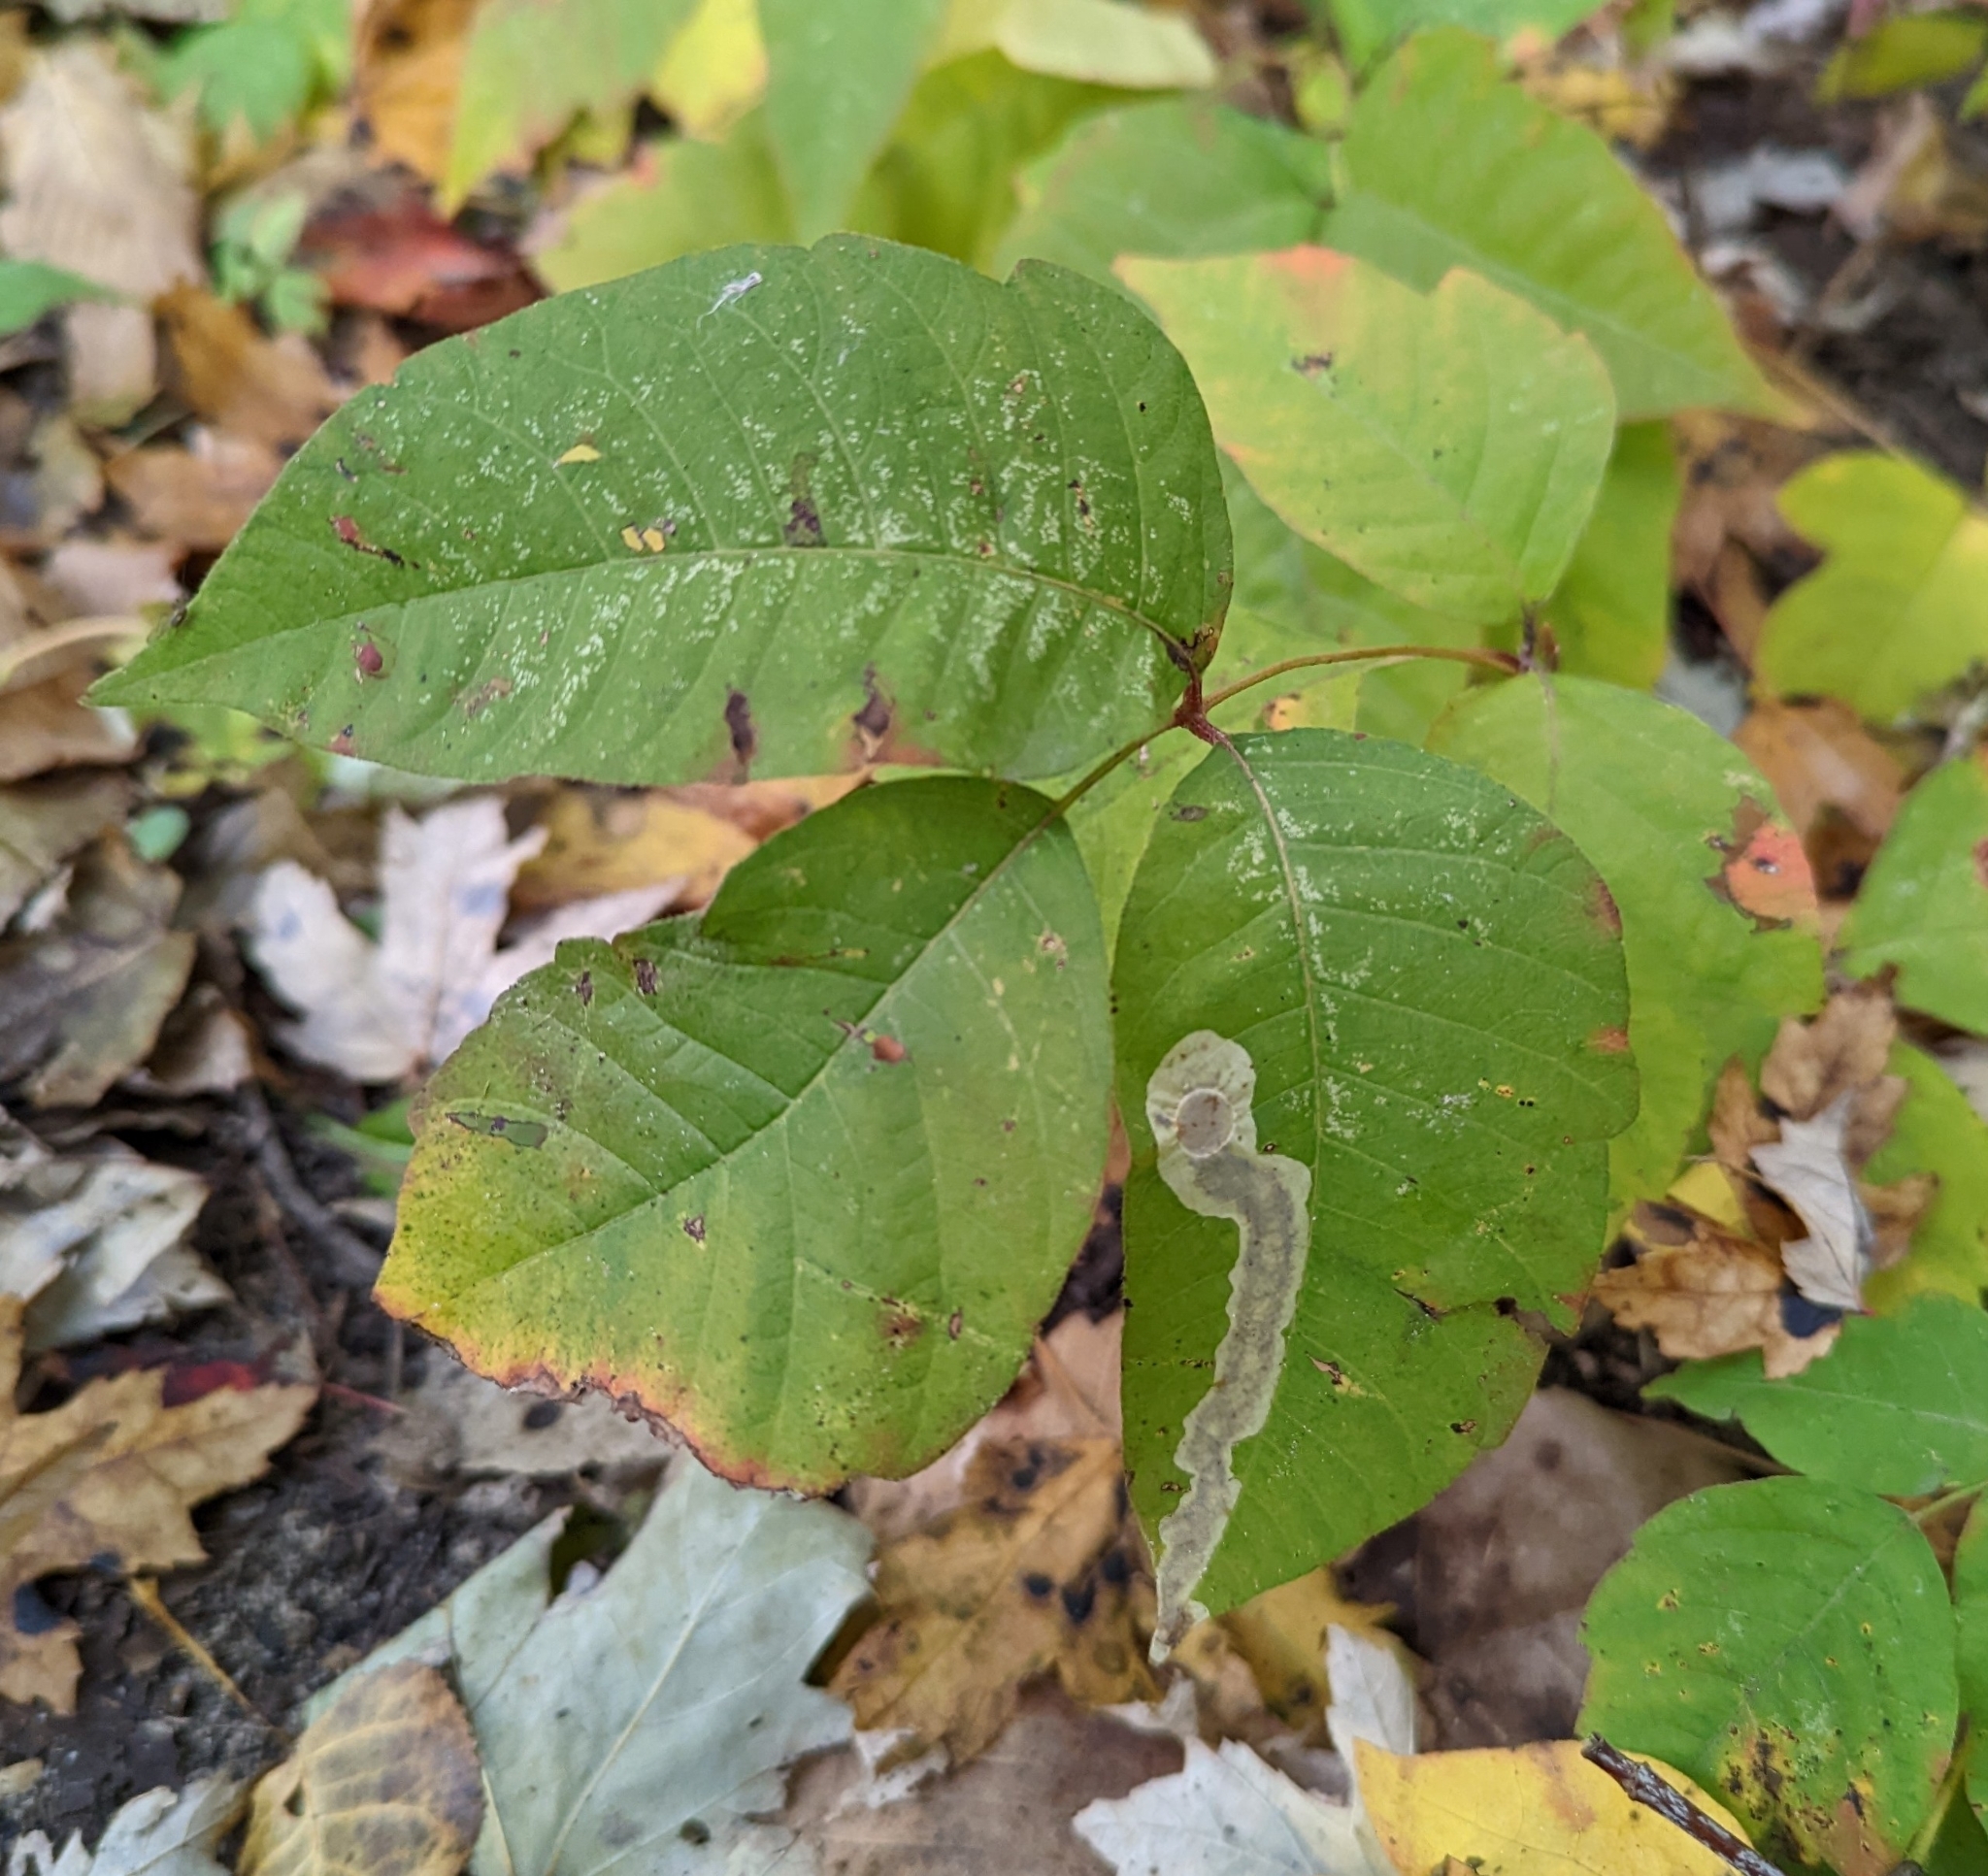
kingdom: Animalia
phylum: Arthropoda
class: Insecta
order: Lepidoptera
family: Gracillariidae
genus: Cameraria
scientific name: Cameraria guttifinitella
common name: Poison ivy leaf-miner moth
